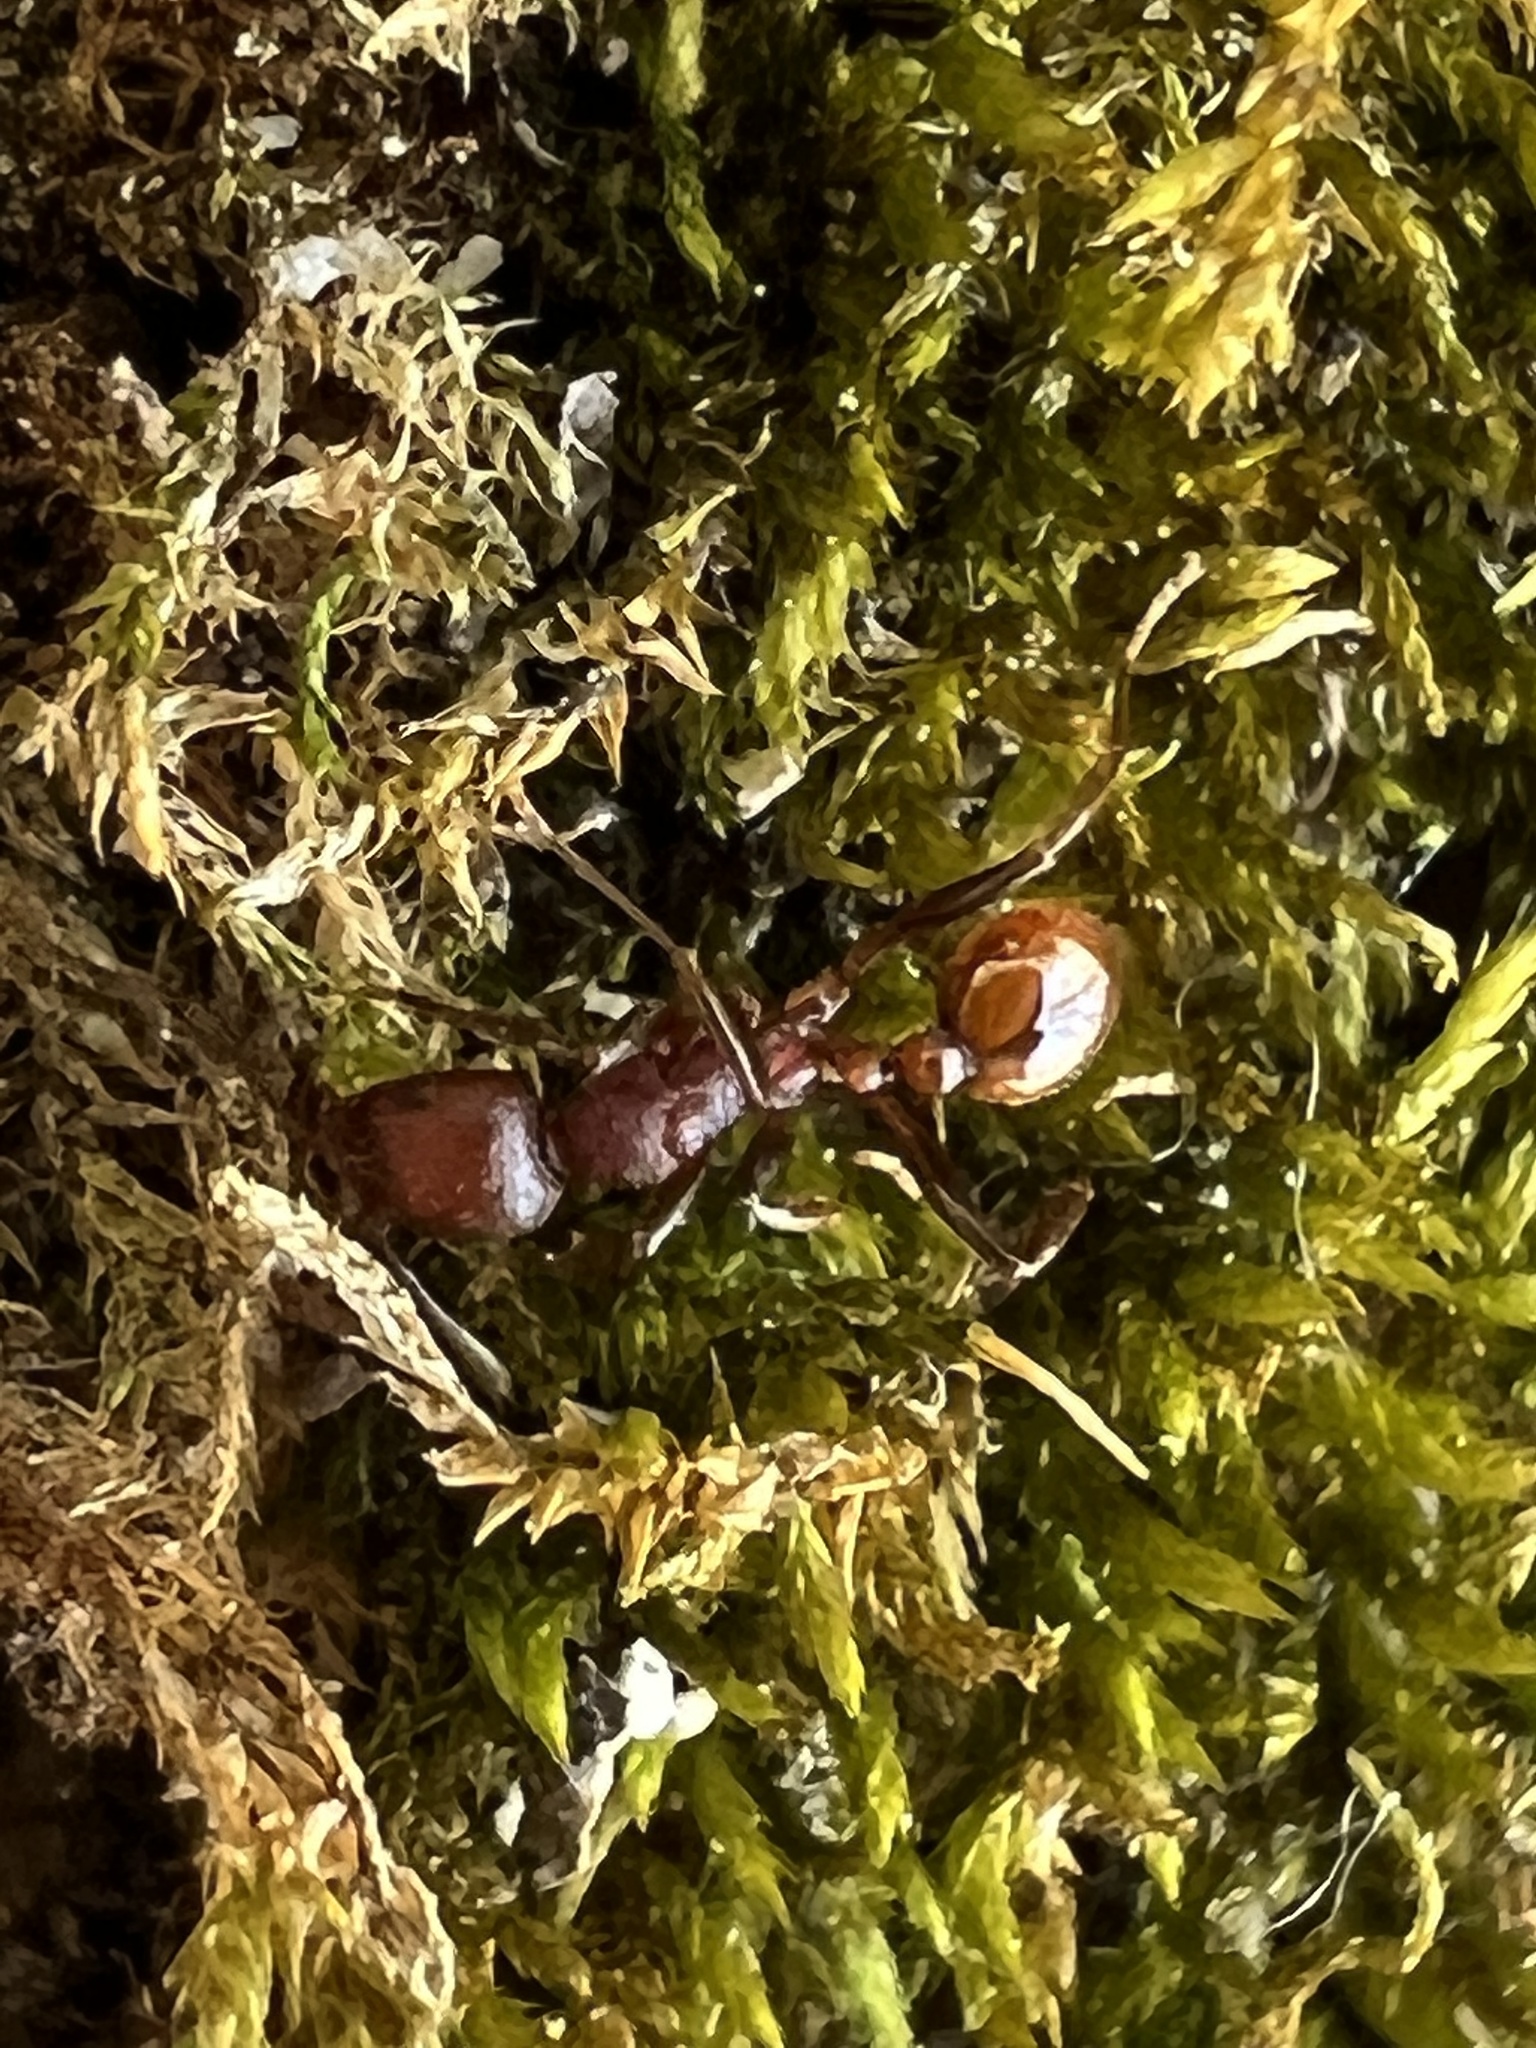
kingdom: Animalia
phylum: Arthropoda
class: Insecta
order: Hymenoptera
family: Formicidae
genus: Aphaenogaster
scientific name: Aphaenogaster tennesseensis
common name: Tennessee thread-waisted ant
